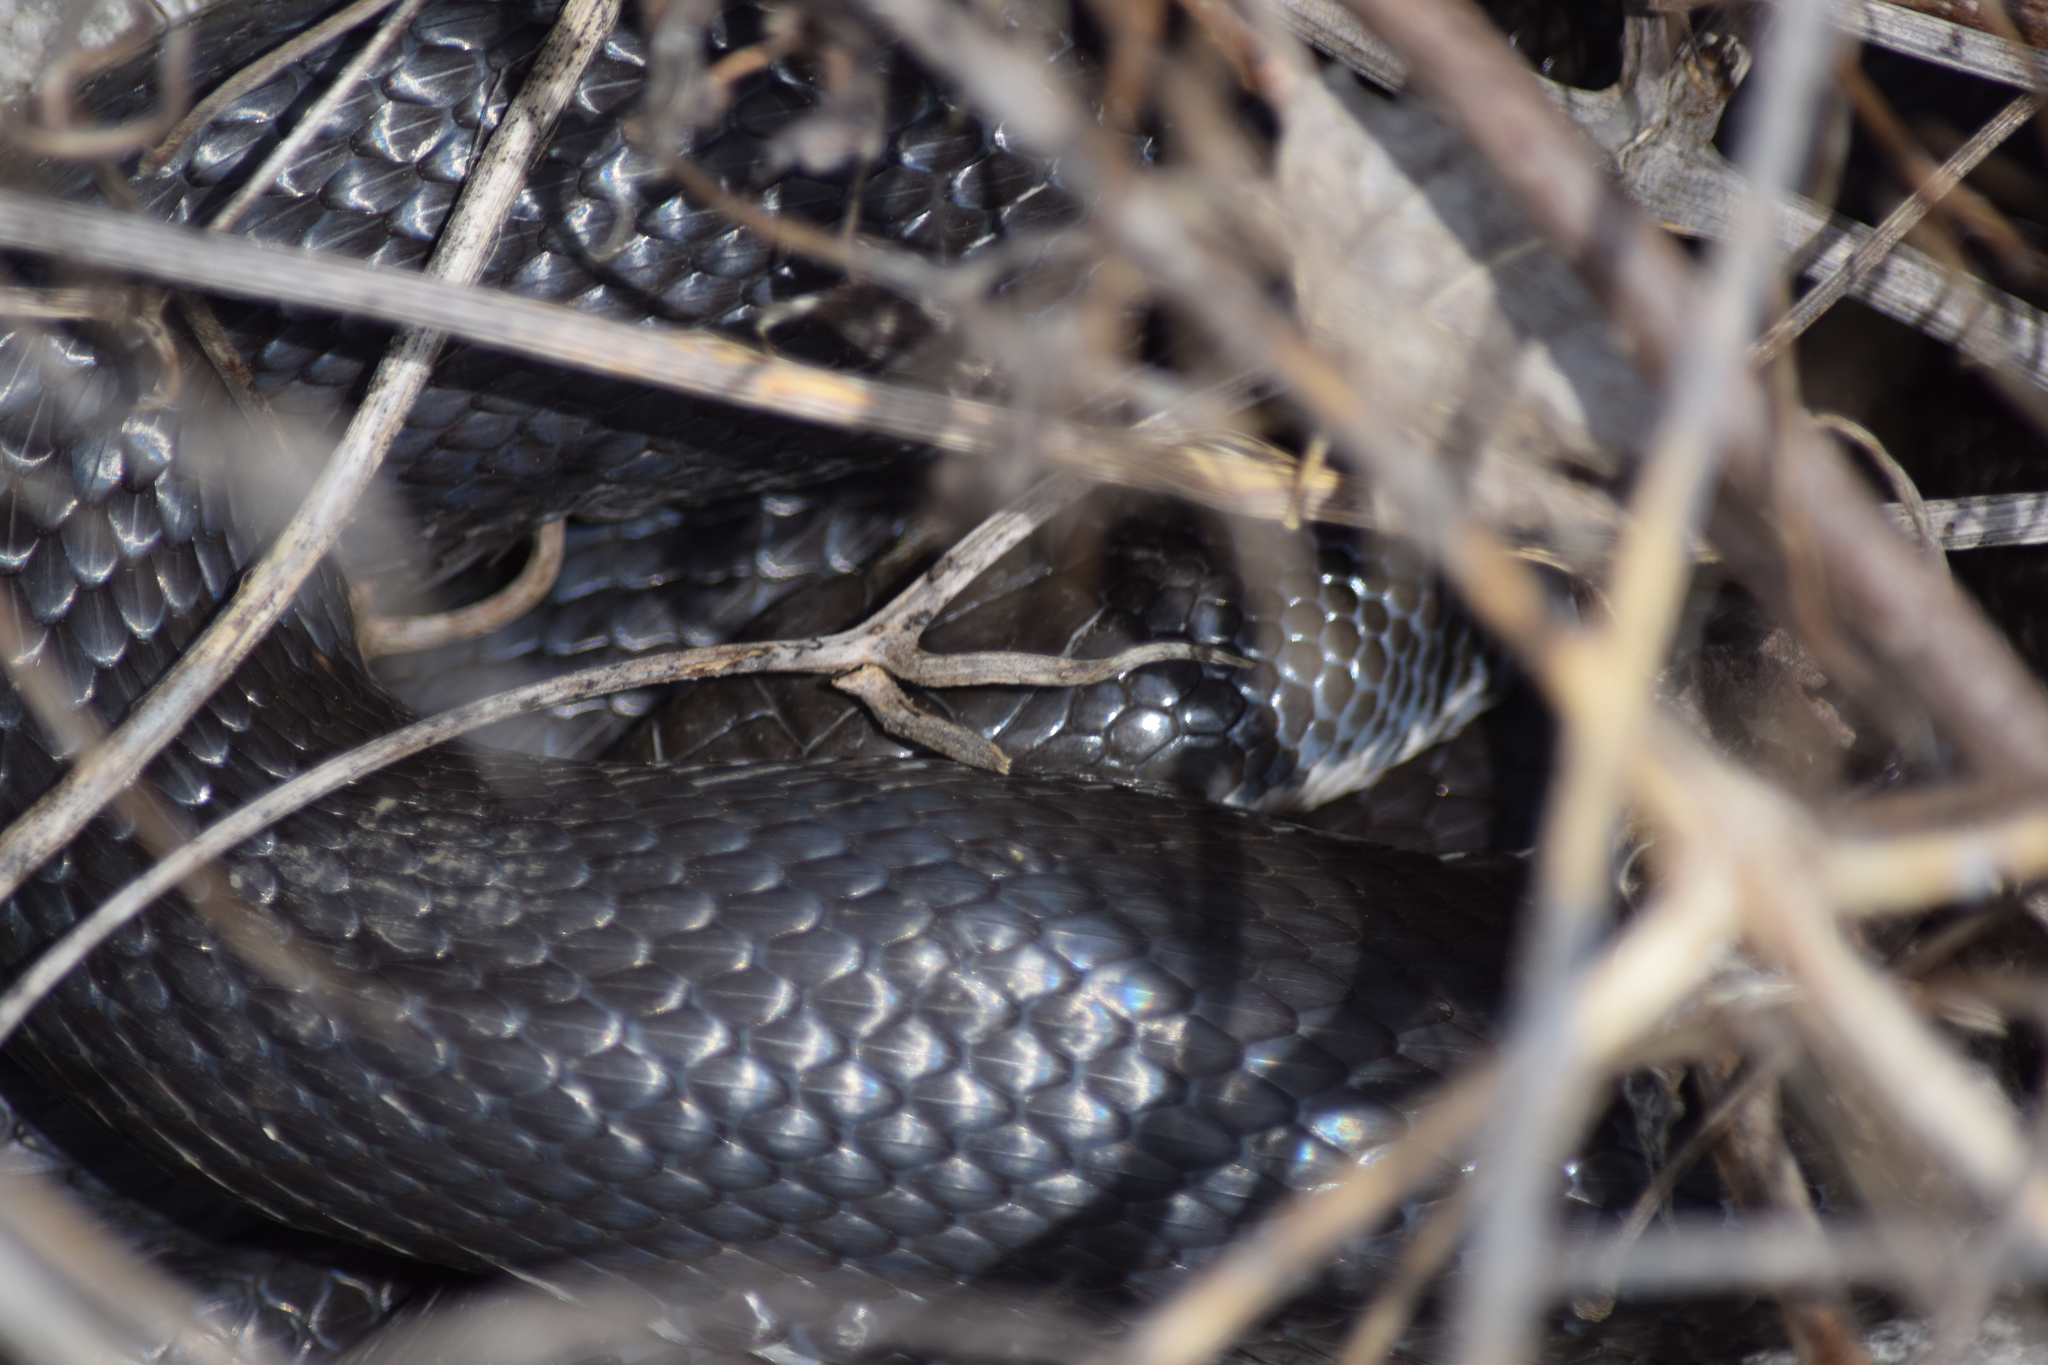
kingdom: Animalia
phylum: Chordata
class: Squamata
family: Colubridae
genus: Pantherophis
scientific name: Pantherophis alleghaniensis
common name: Eastern rat snake
